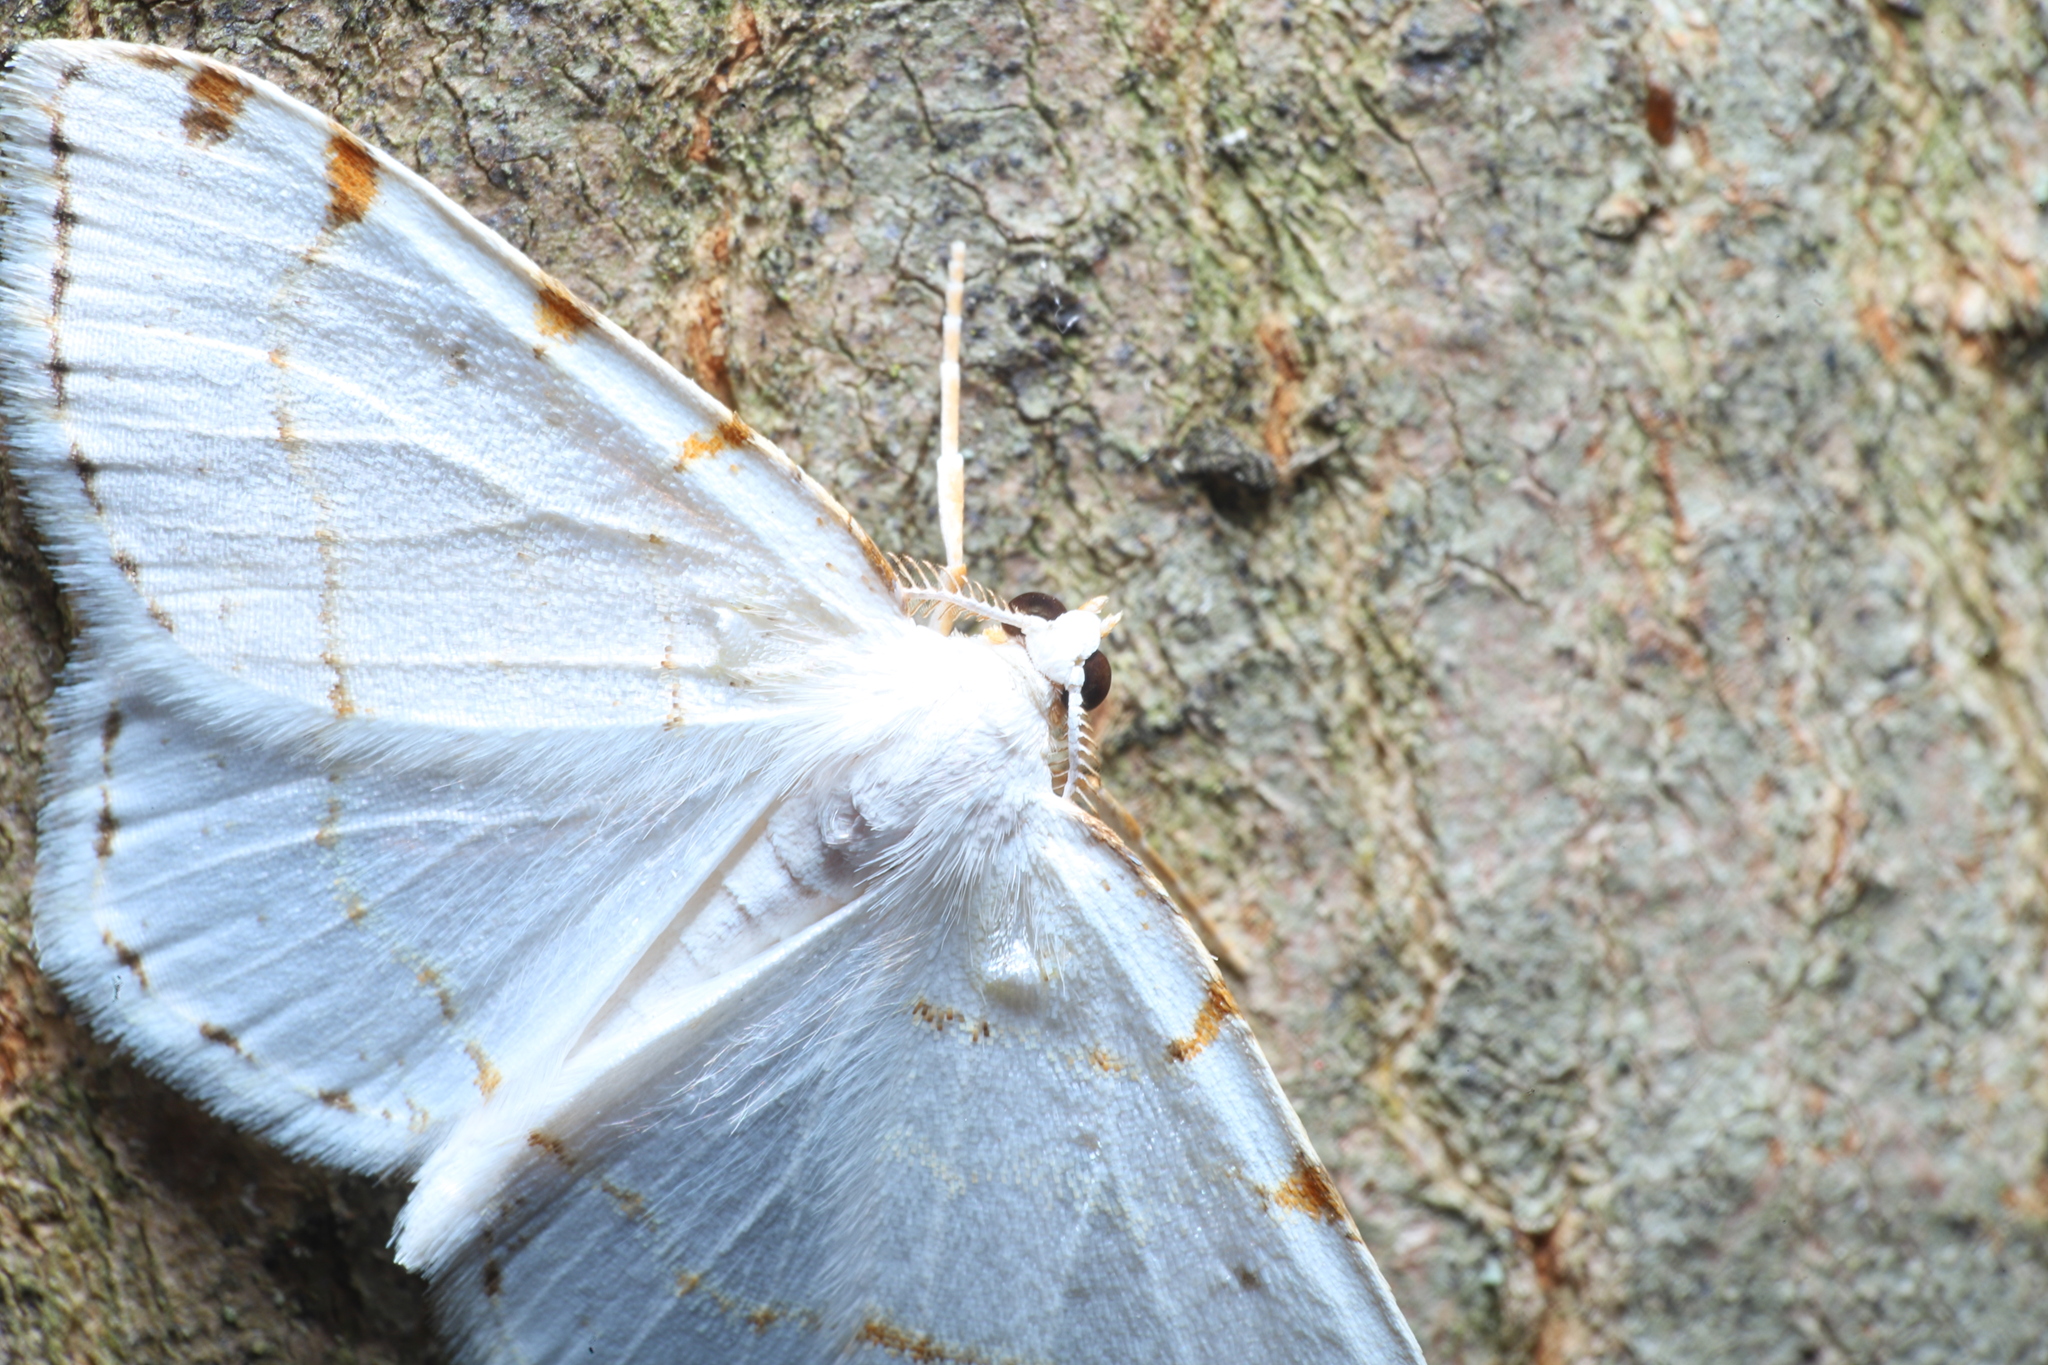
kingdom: Animalia
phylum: Arthropoda
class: Insecta
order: Lepidoptera
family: Geometridae
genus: Macaria
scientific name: Macaria pustularia
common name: Lesser maple spanworm moth
